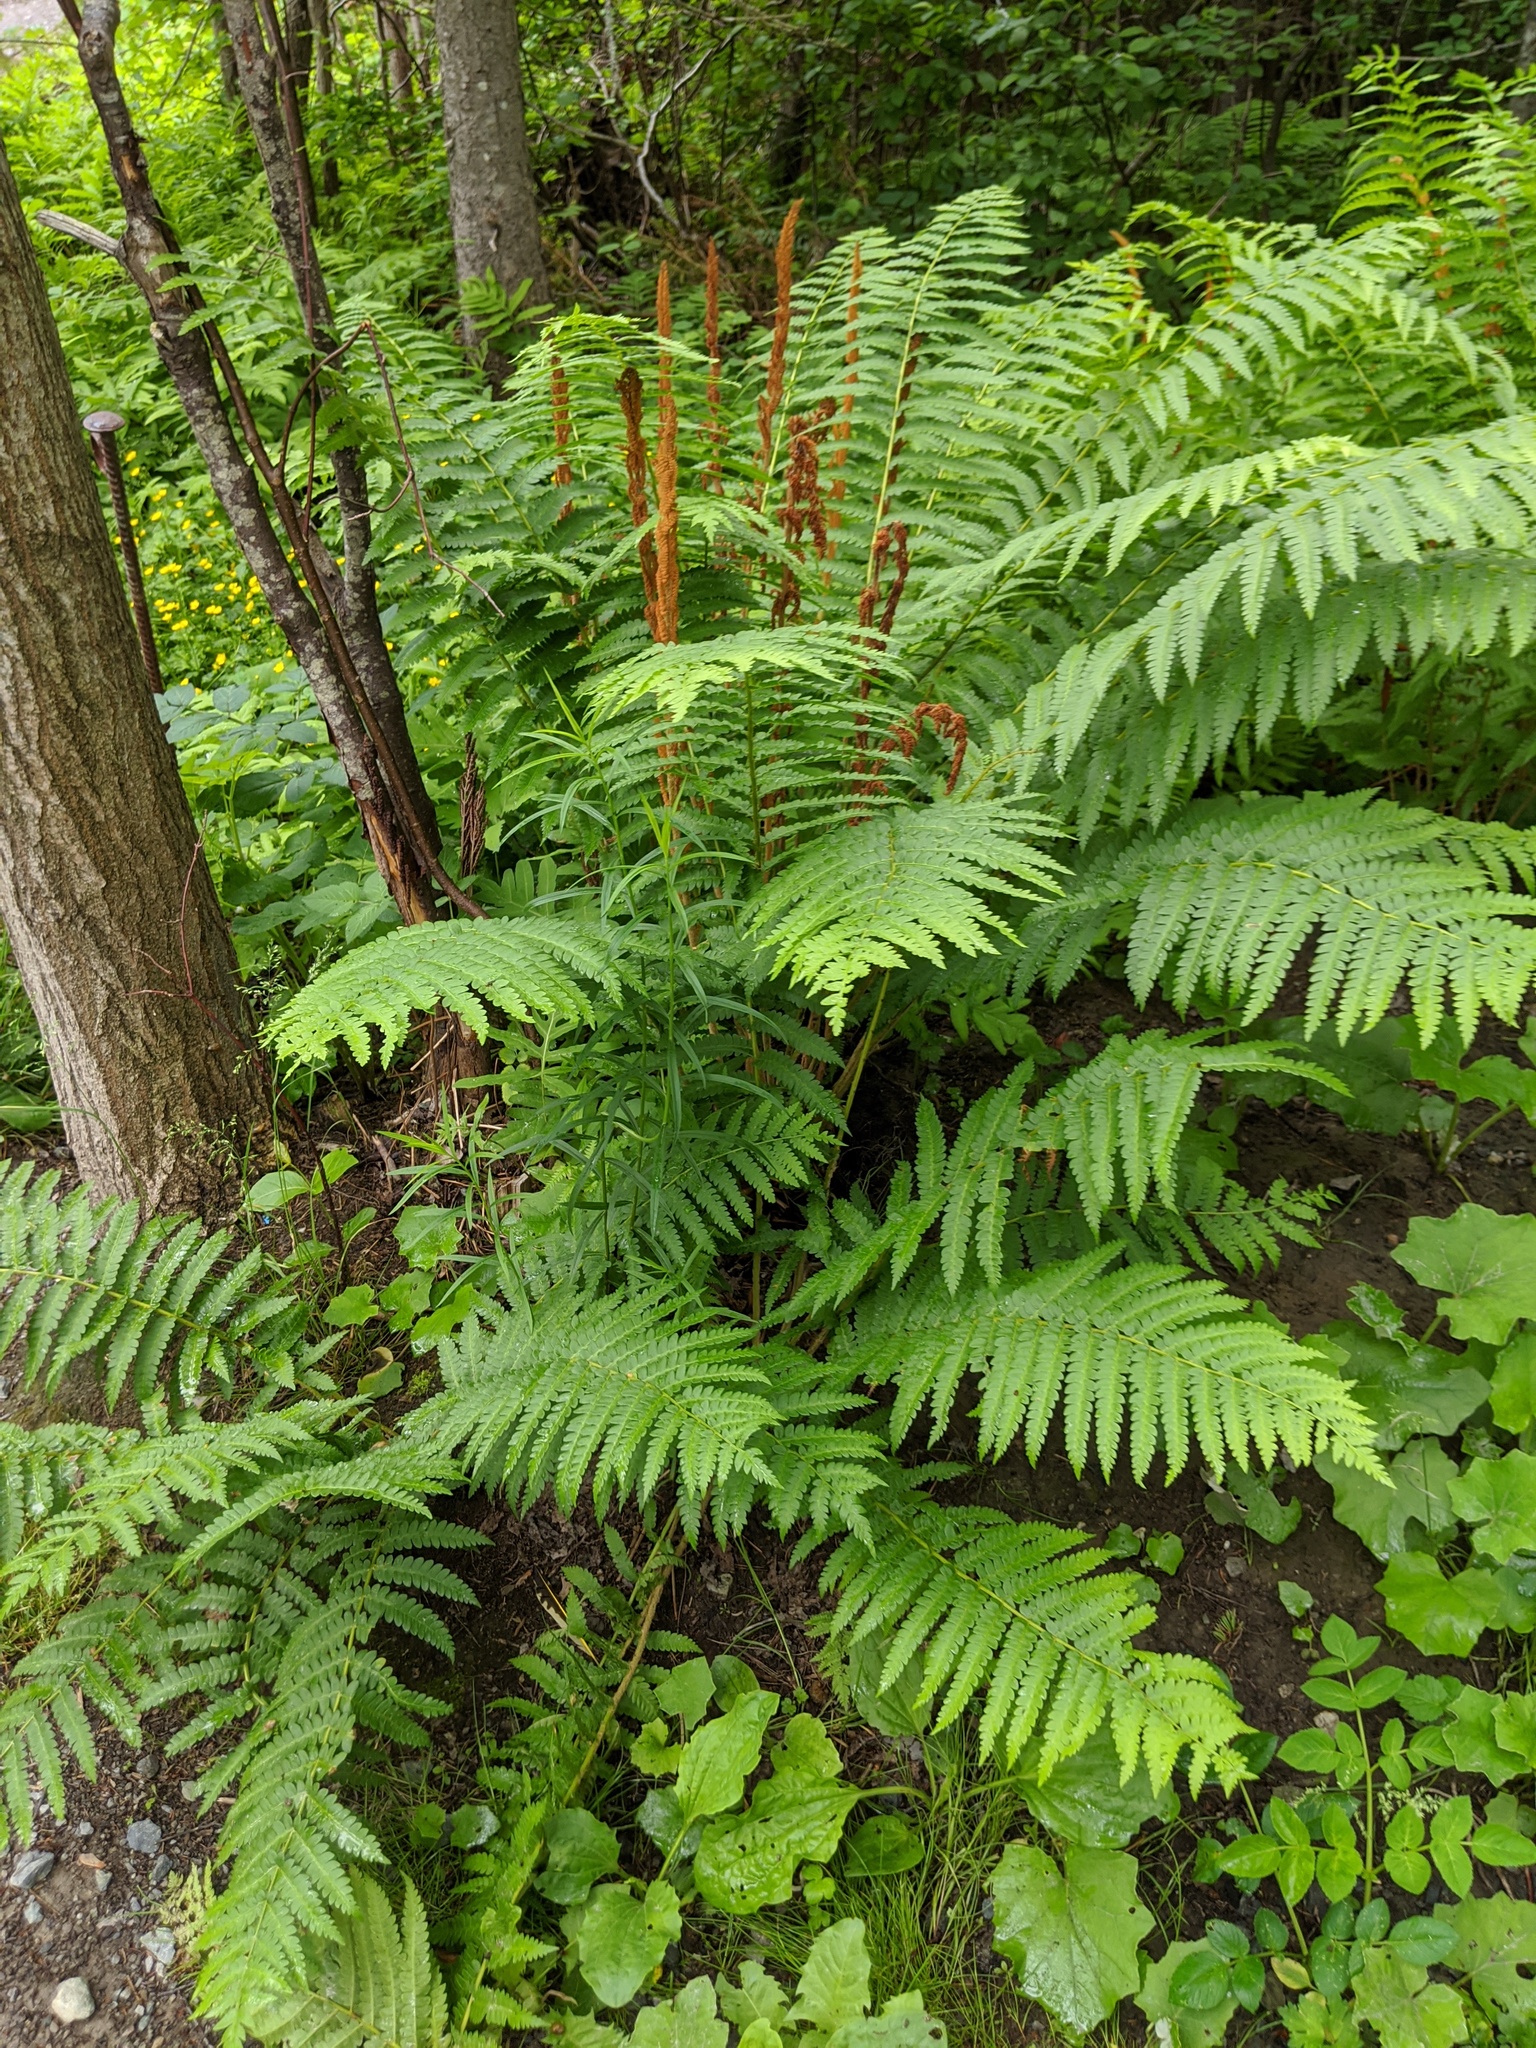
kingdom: Plantae
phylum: Tracheophyta
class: Polypodiopsida
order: Osmundales
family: Osmundaceae
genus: Osmundastrum
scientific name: Osmundastrum cinnamomeum
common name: Cinnamon fern
